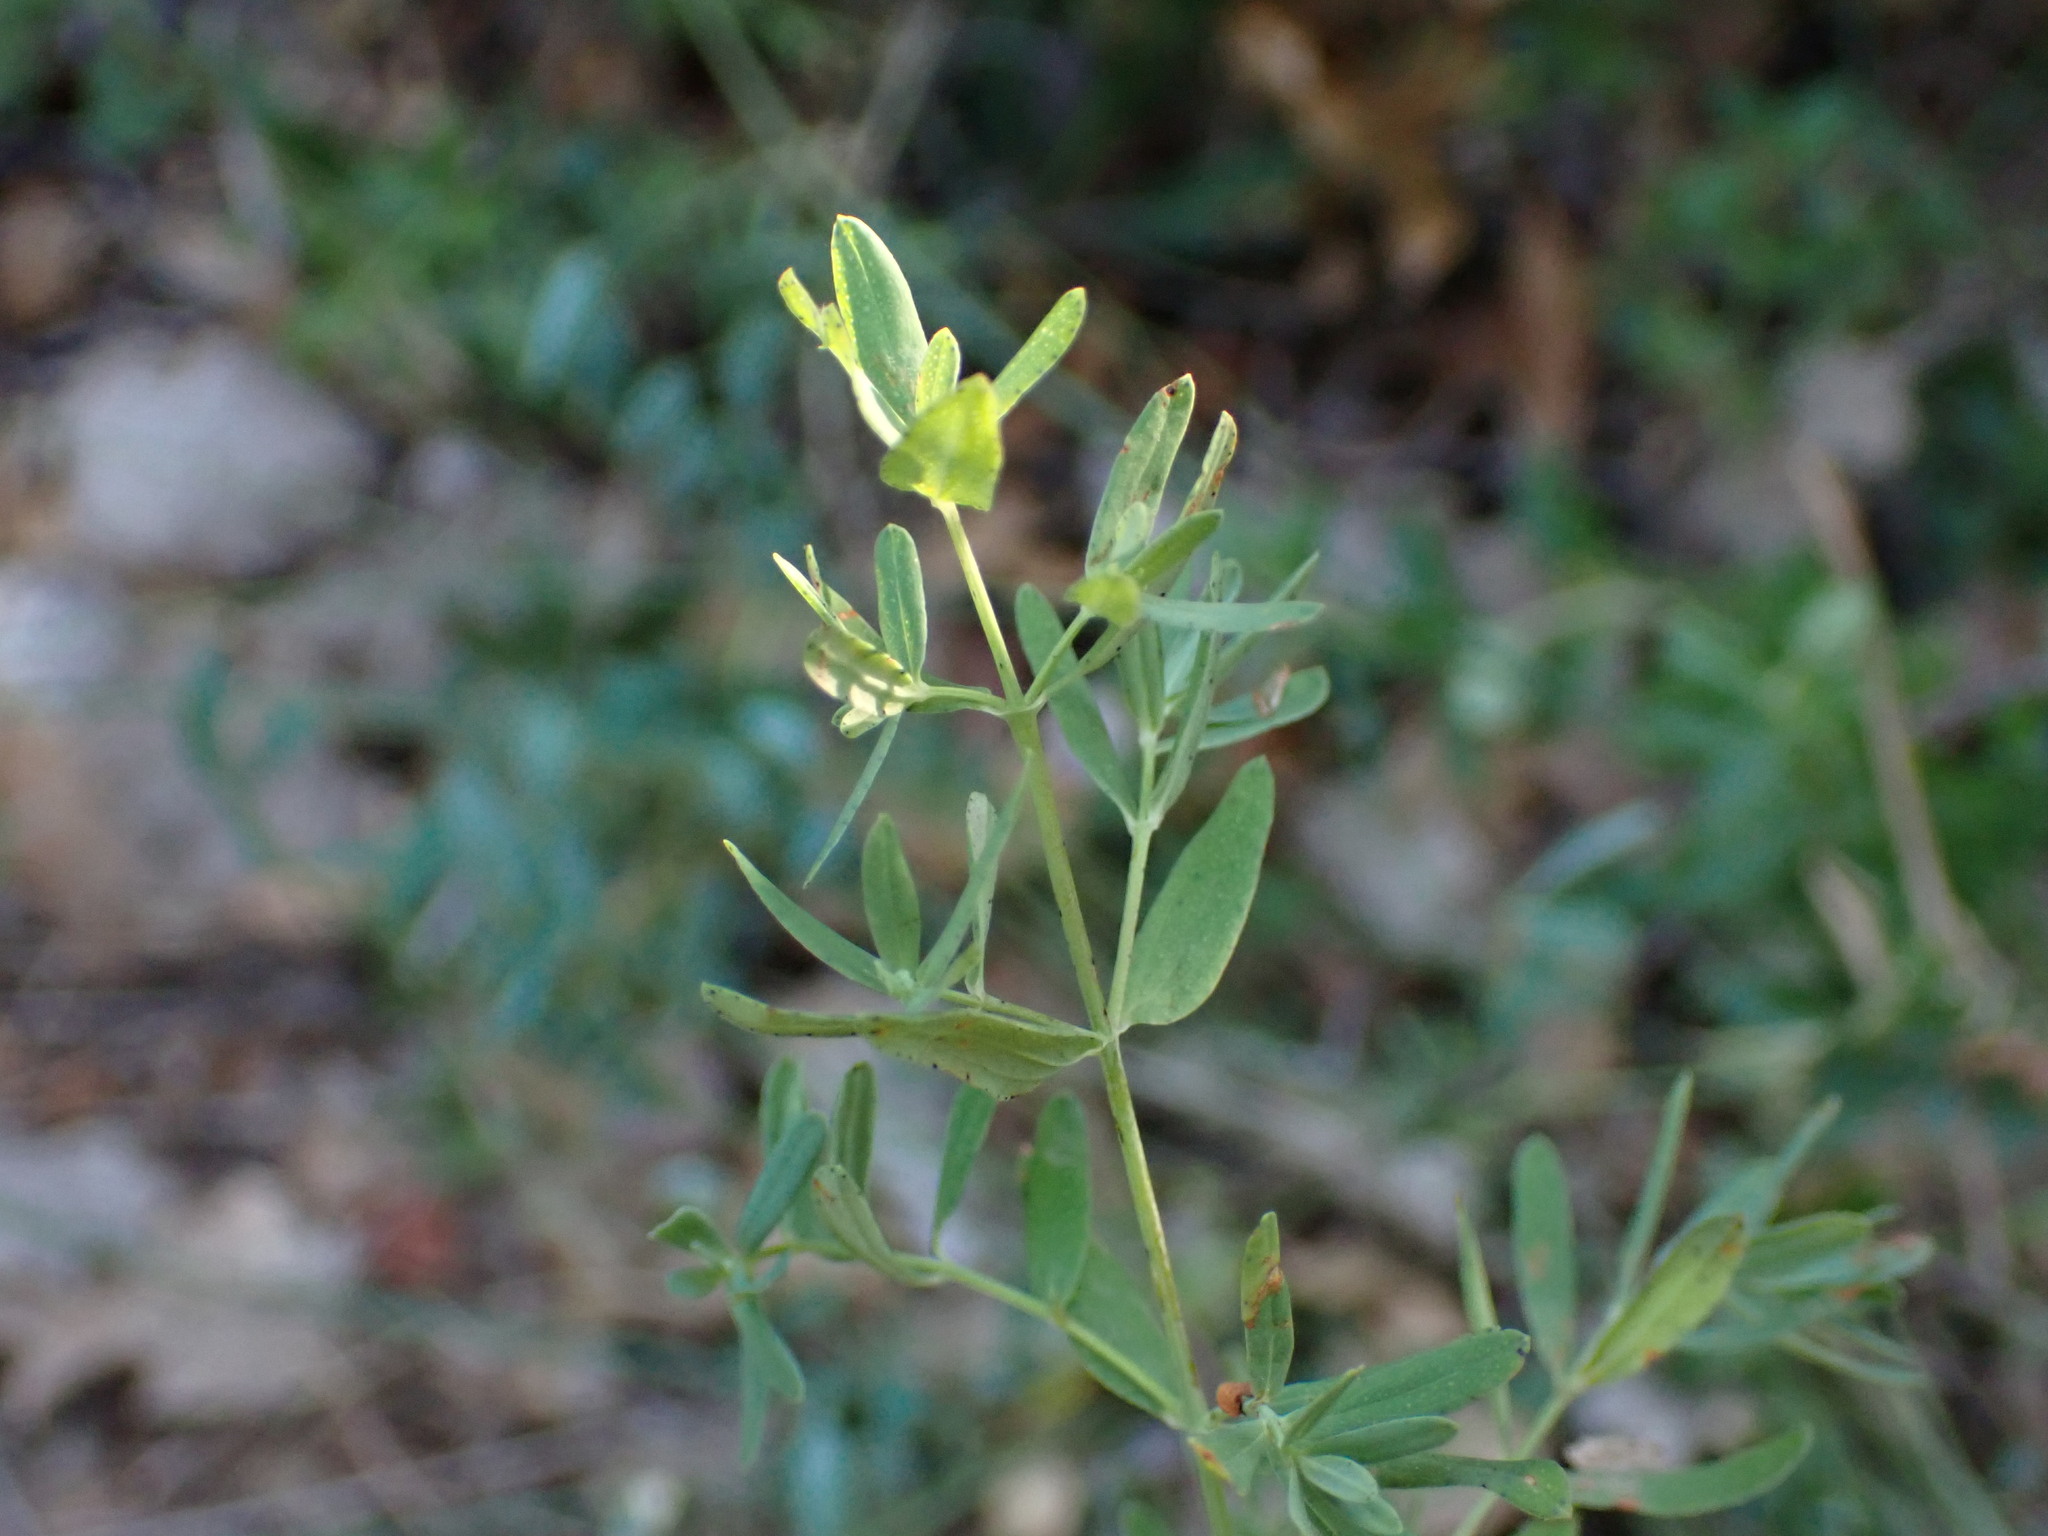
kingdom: Plantae
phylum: Tracheophyta
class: Magnoliopsida
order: Malpighiales
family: Hypericaceae
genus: Hypericum
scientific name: Hypericum perforatum
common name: Common st. johnswort
